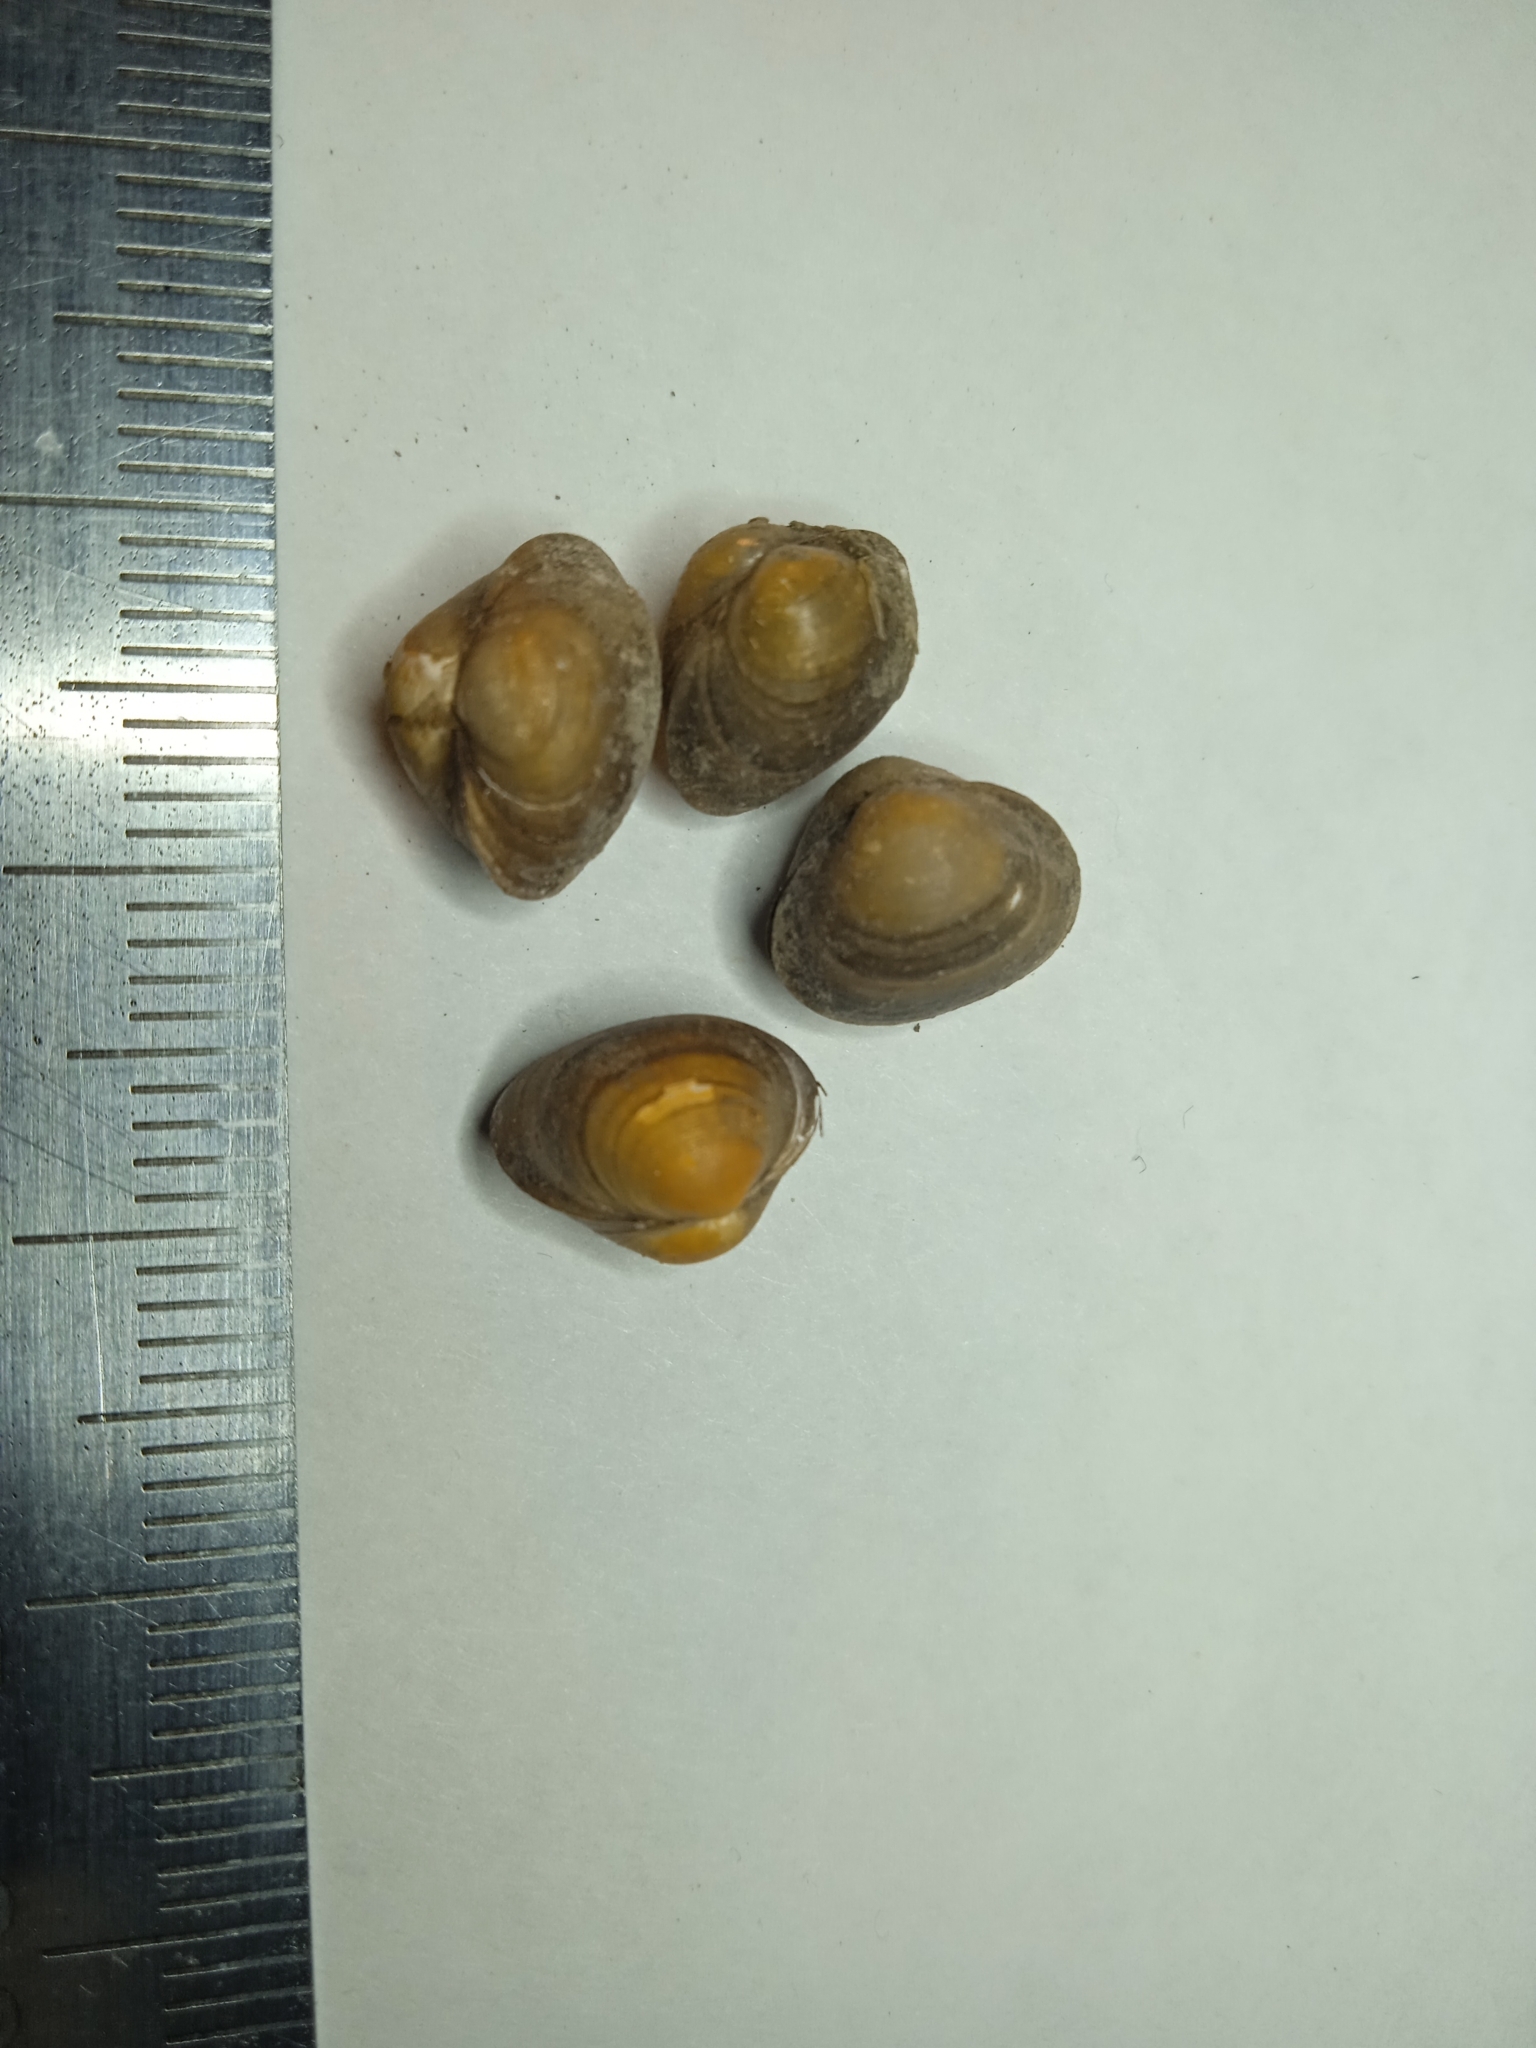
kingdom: Animalia
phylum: Mollusca
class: Bivalvia
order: Sphaeriida
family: Sphaeriidae
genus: Sphaerium
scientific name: Sphaerium corneum
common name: Horny orb mussel
